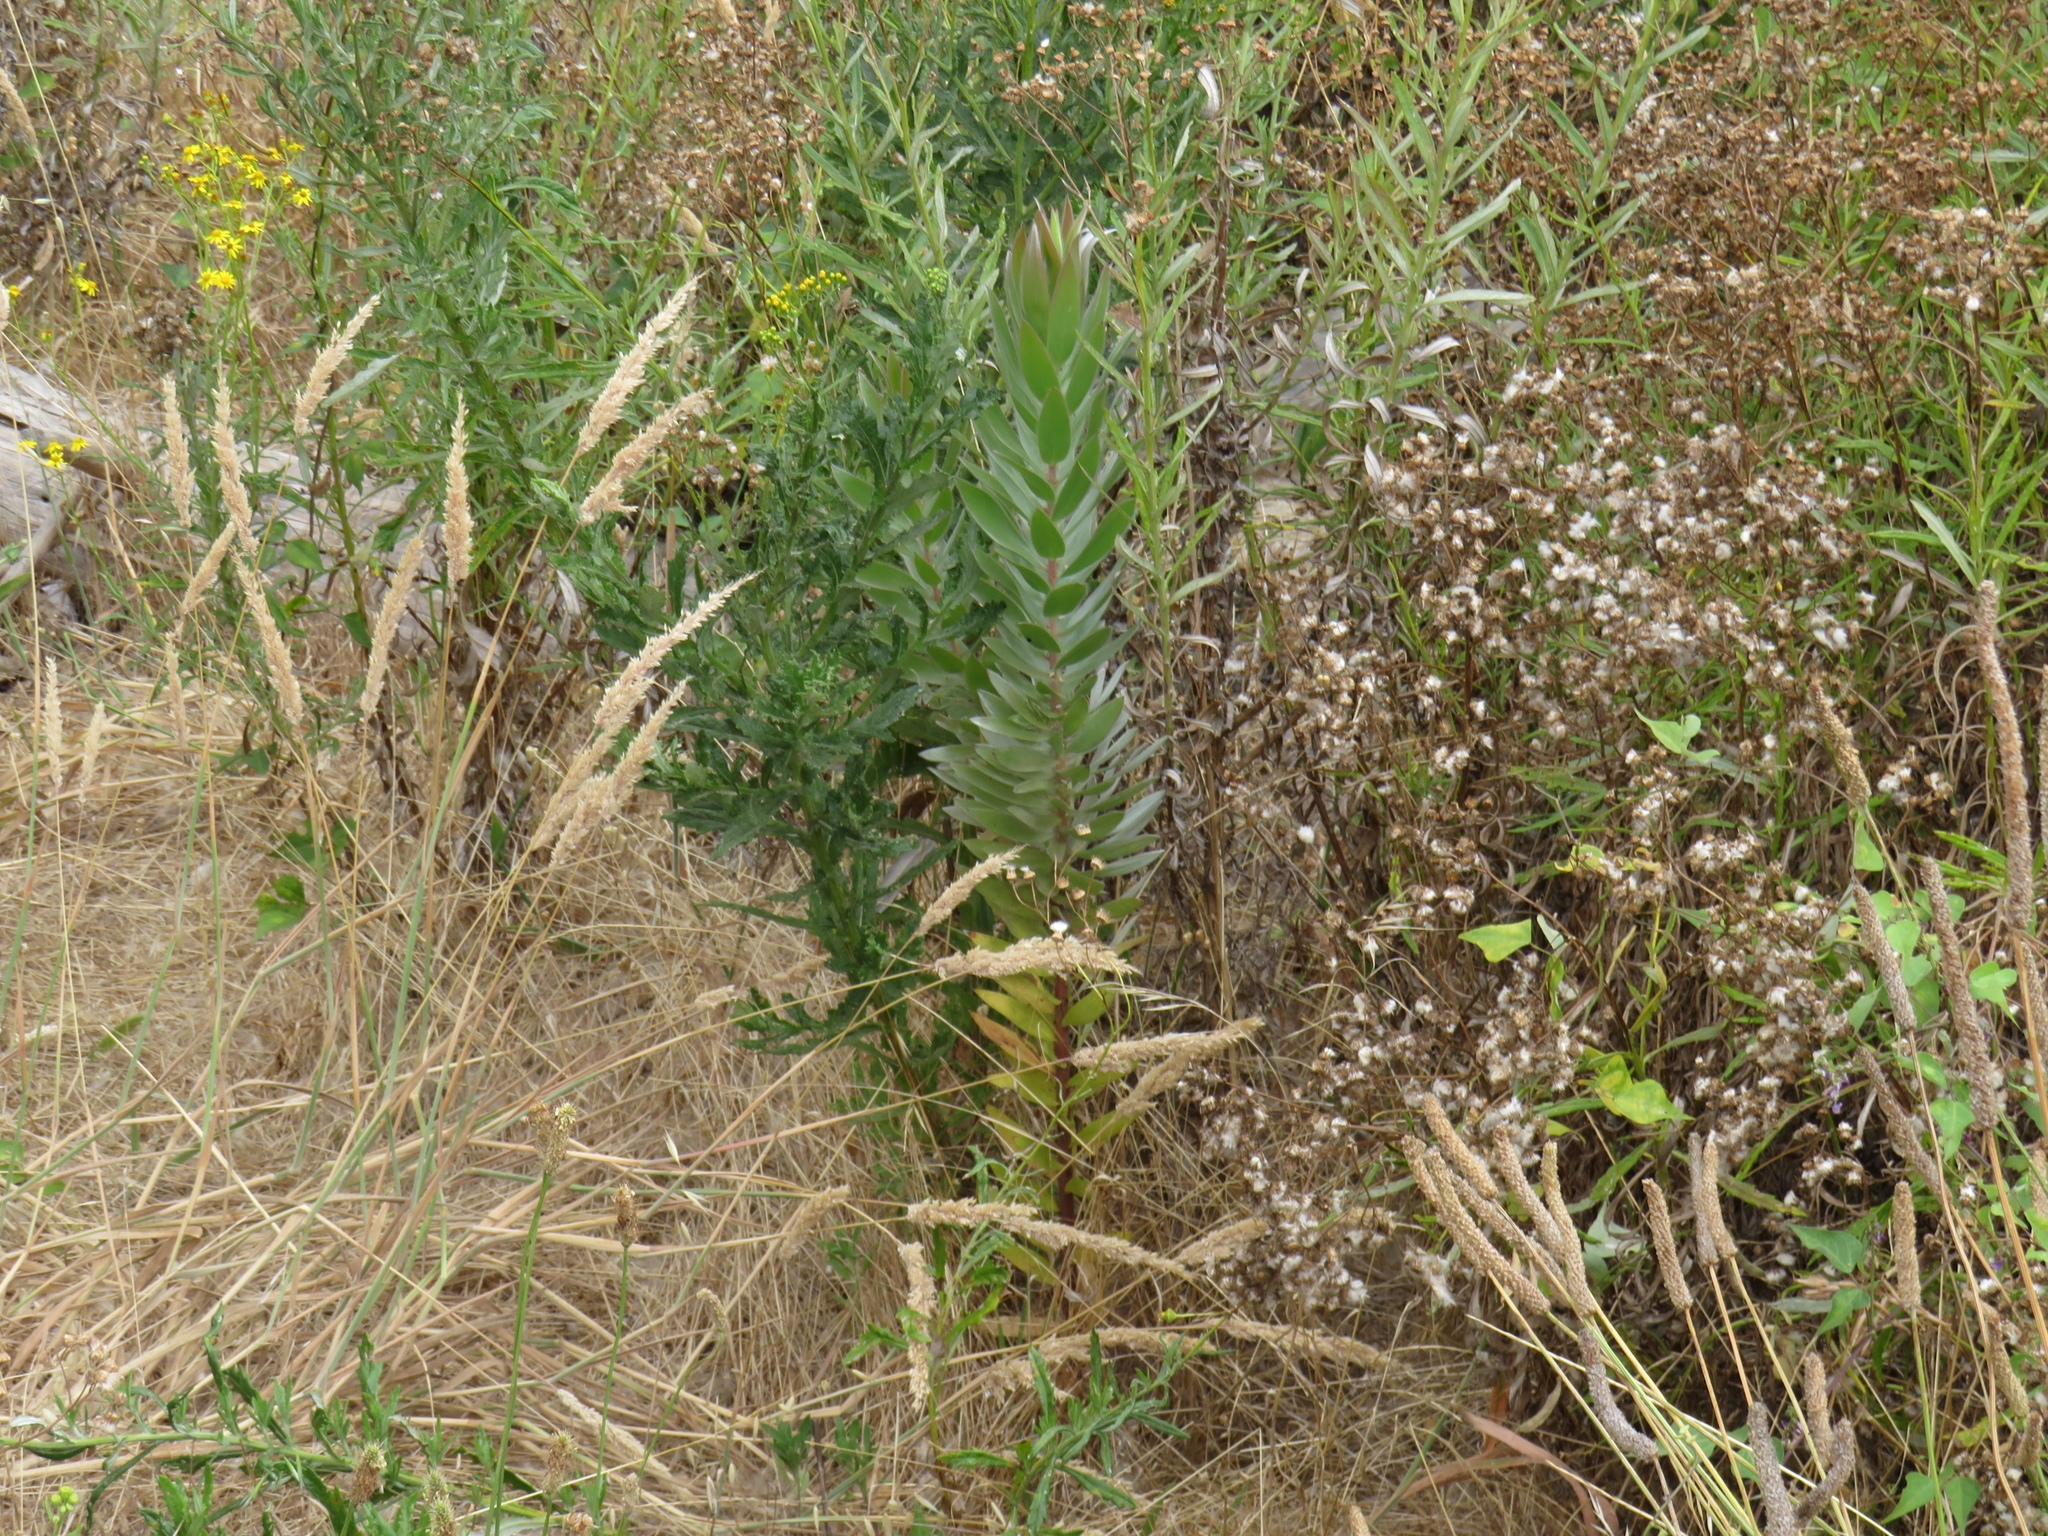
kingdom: Plantae
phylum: Tracheophyta
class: Magnoliopsida
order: Proteales
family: Proteaceae
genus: Leucadendron
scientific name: Leucadendron argenteum
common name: Cape silver tree
